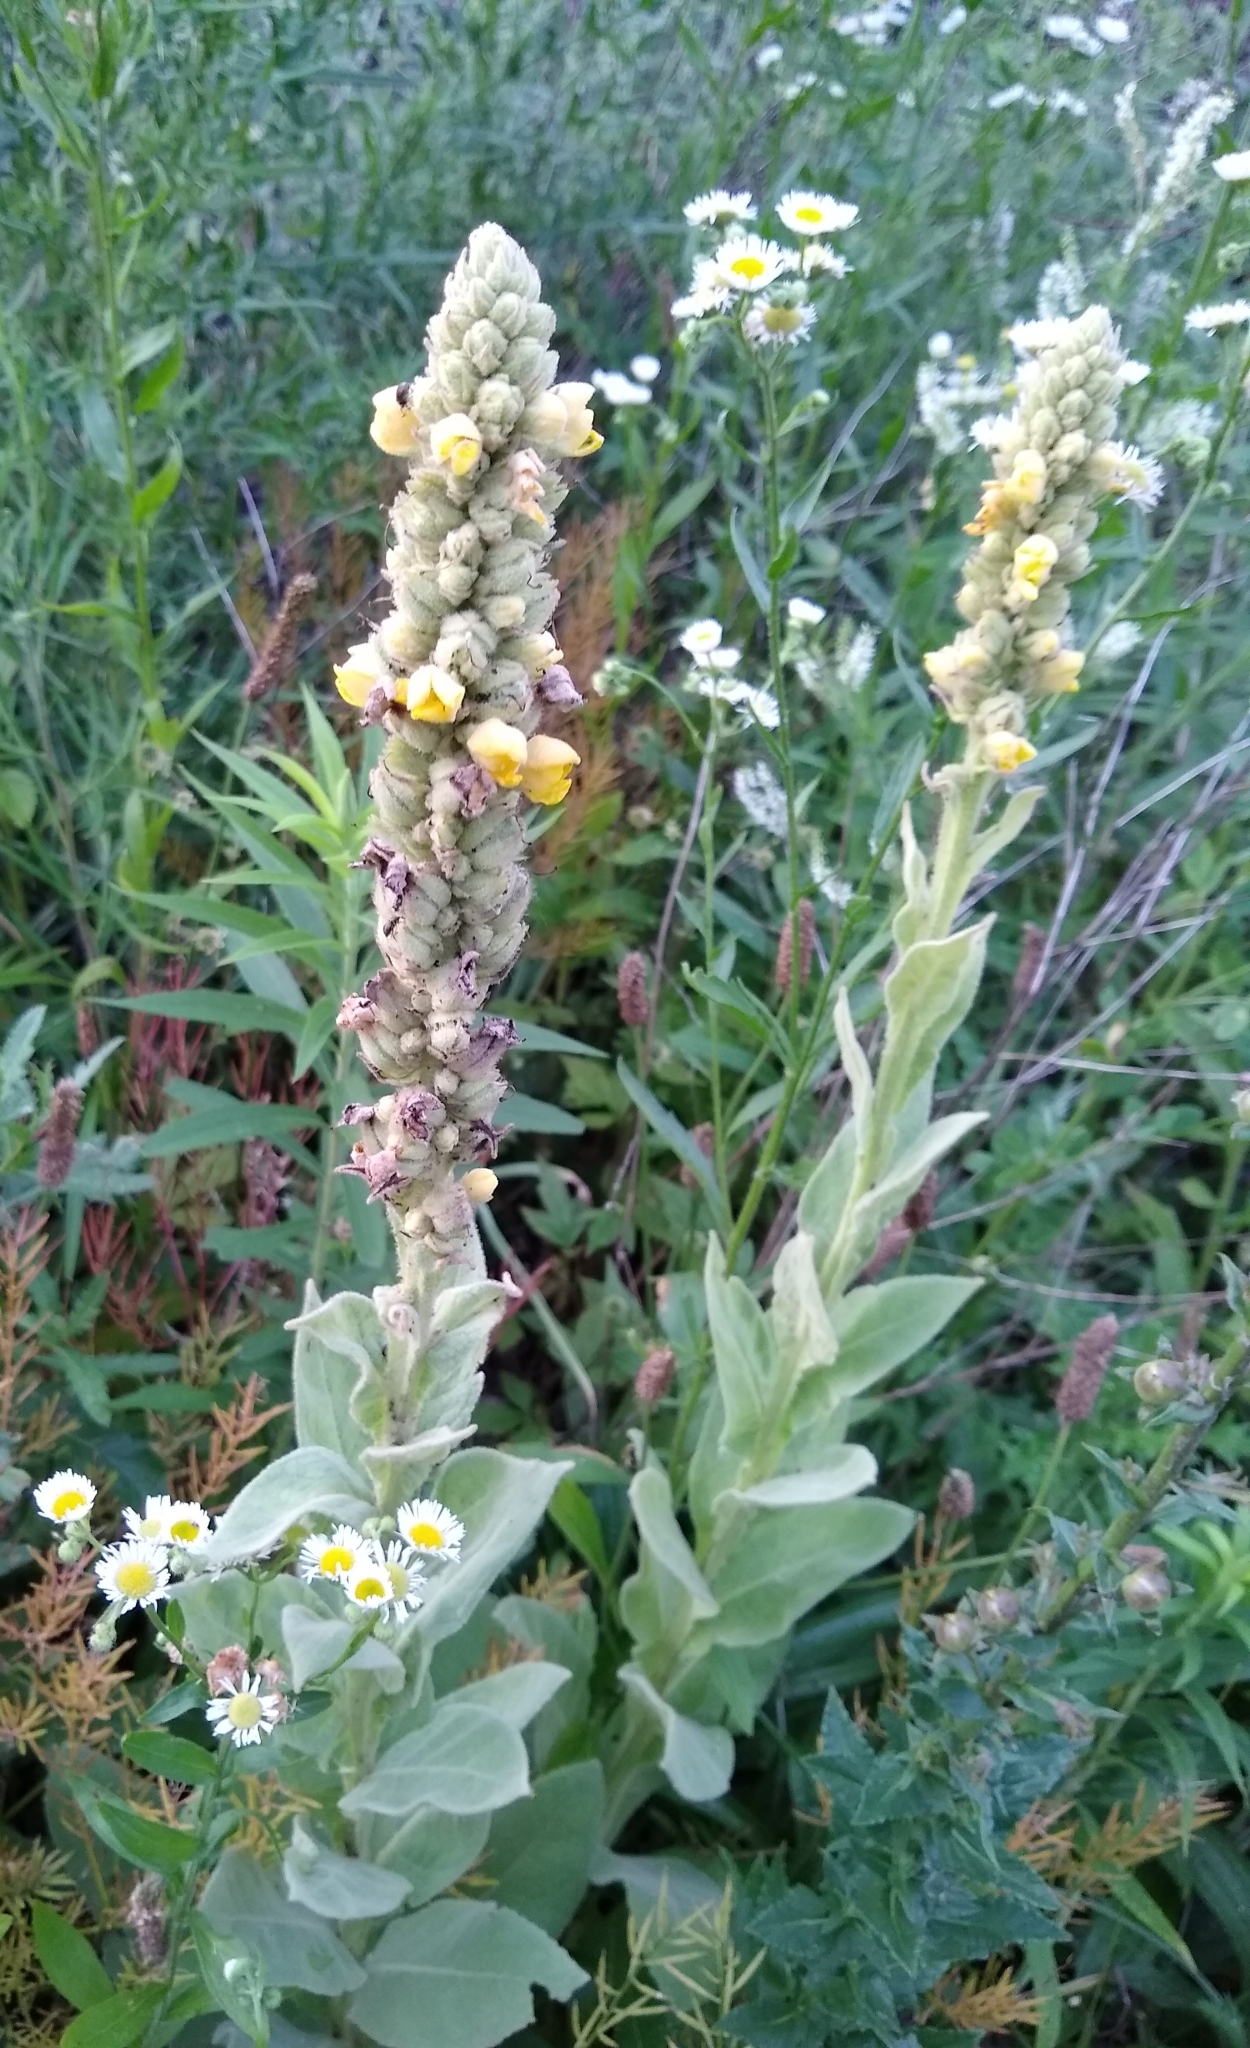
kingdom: Plantae
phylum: Tracheophyta
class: Magnoliopsida
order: Lamiales
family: Scrophulariaceae
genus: Verbascum
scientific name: Verbascum thapsus
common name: Common mullein
